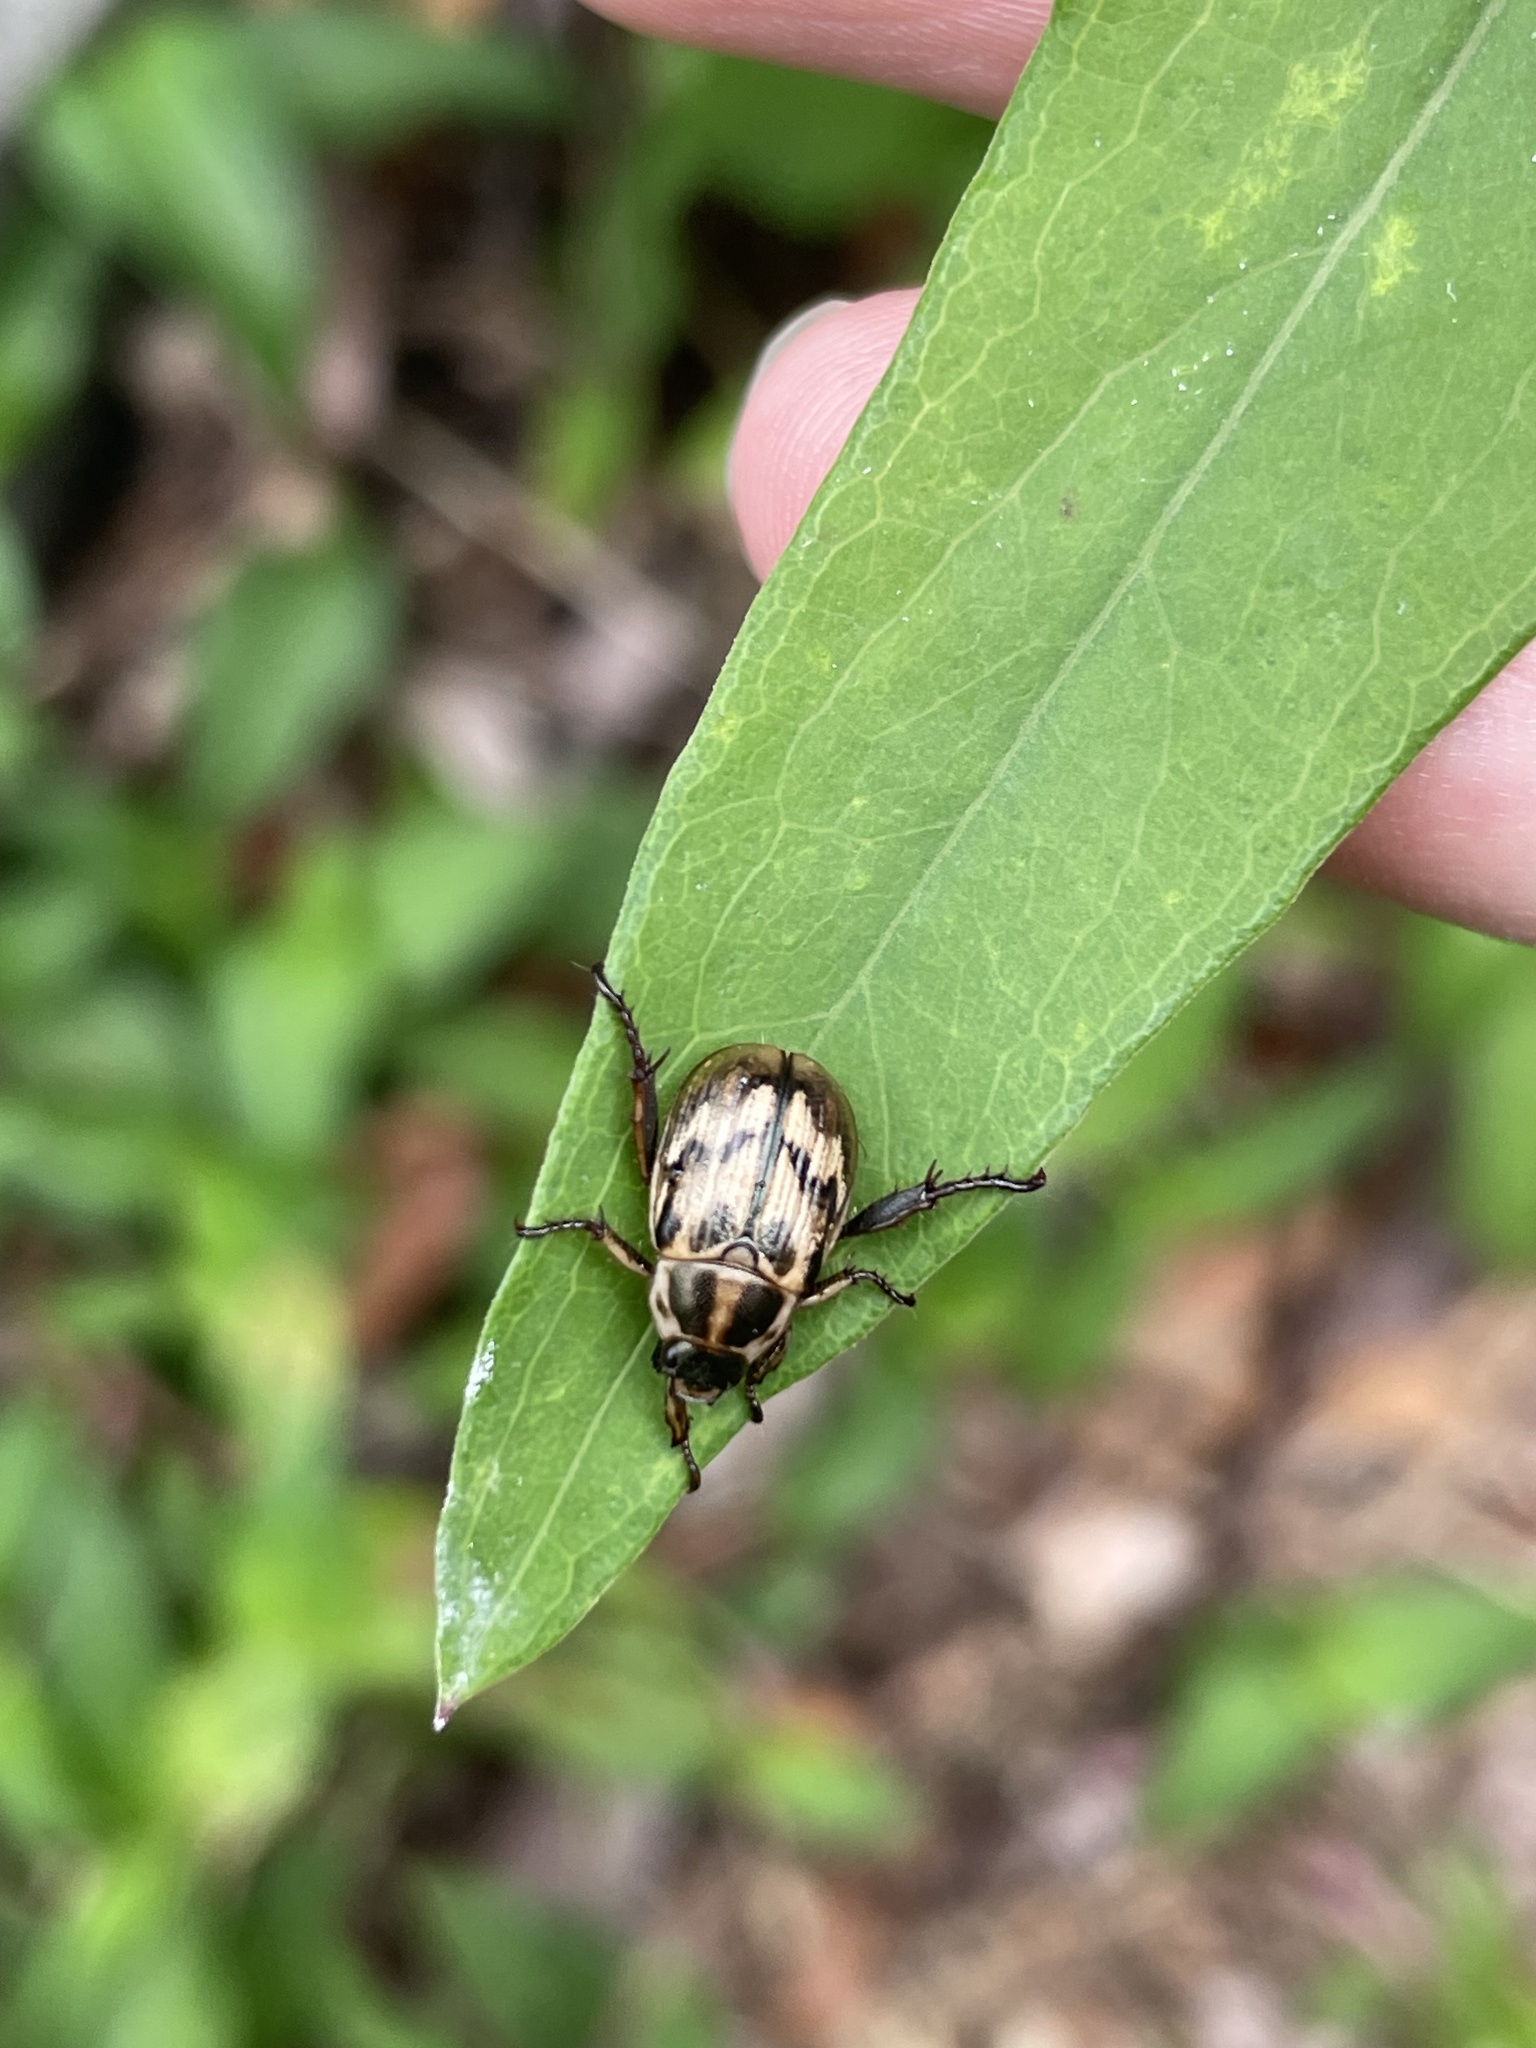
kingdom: Animalia
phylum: Arthropoda
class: Insecta
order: Coleoptera
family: Scarabaeidae
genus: Exomala
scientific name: Exomala orientalis
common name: Oriental beetle
